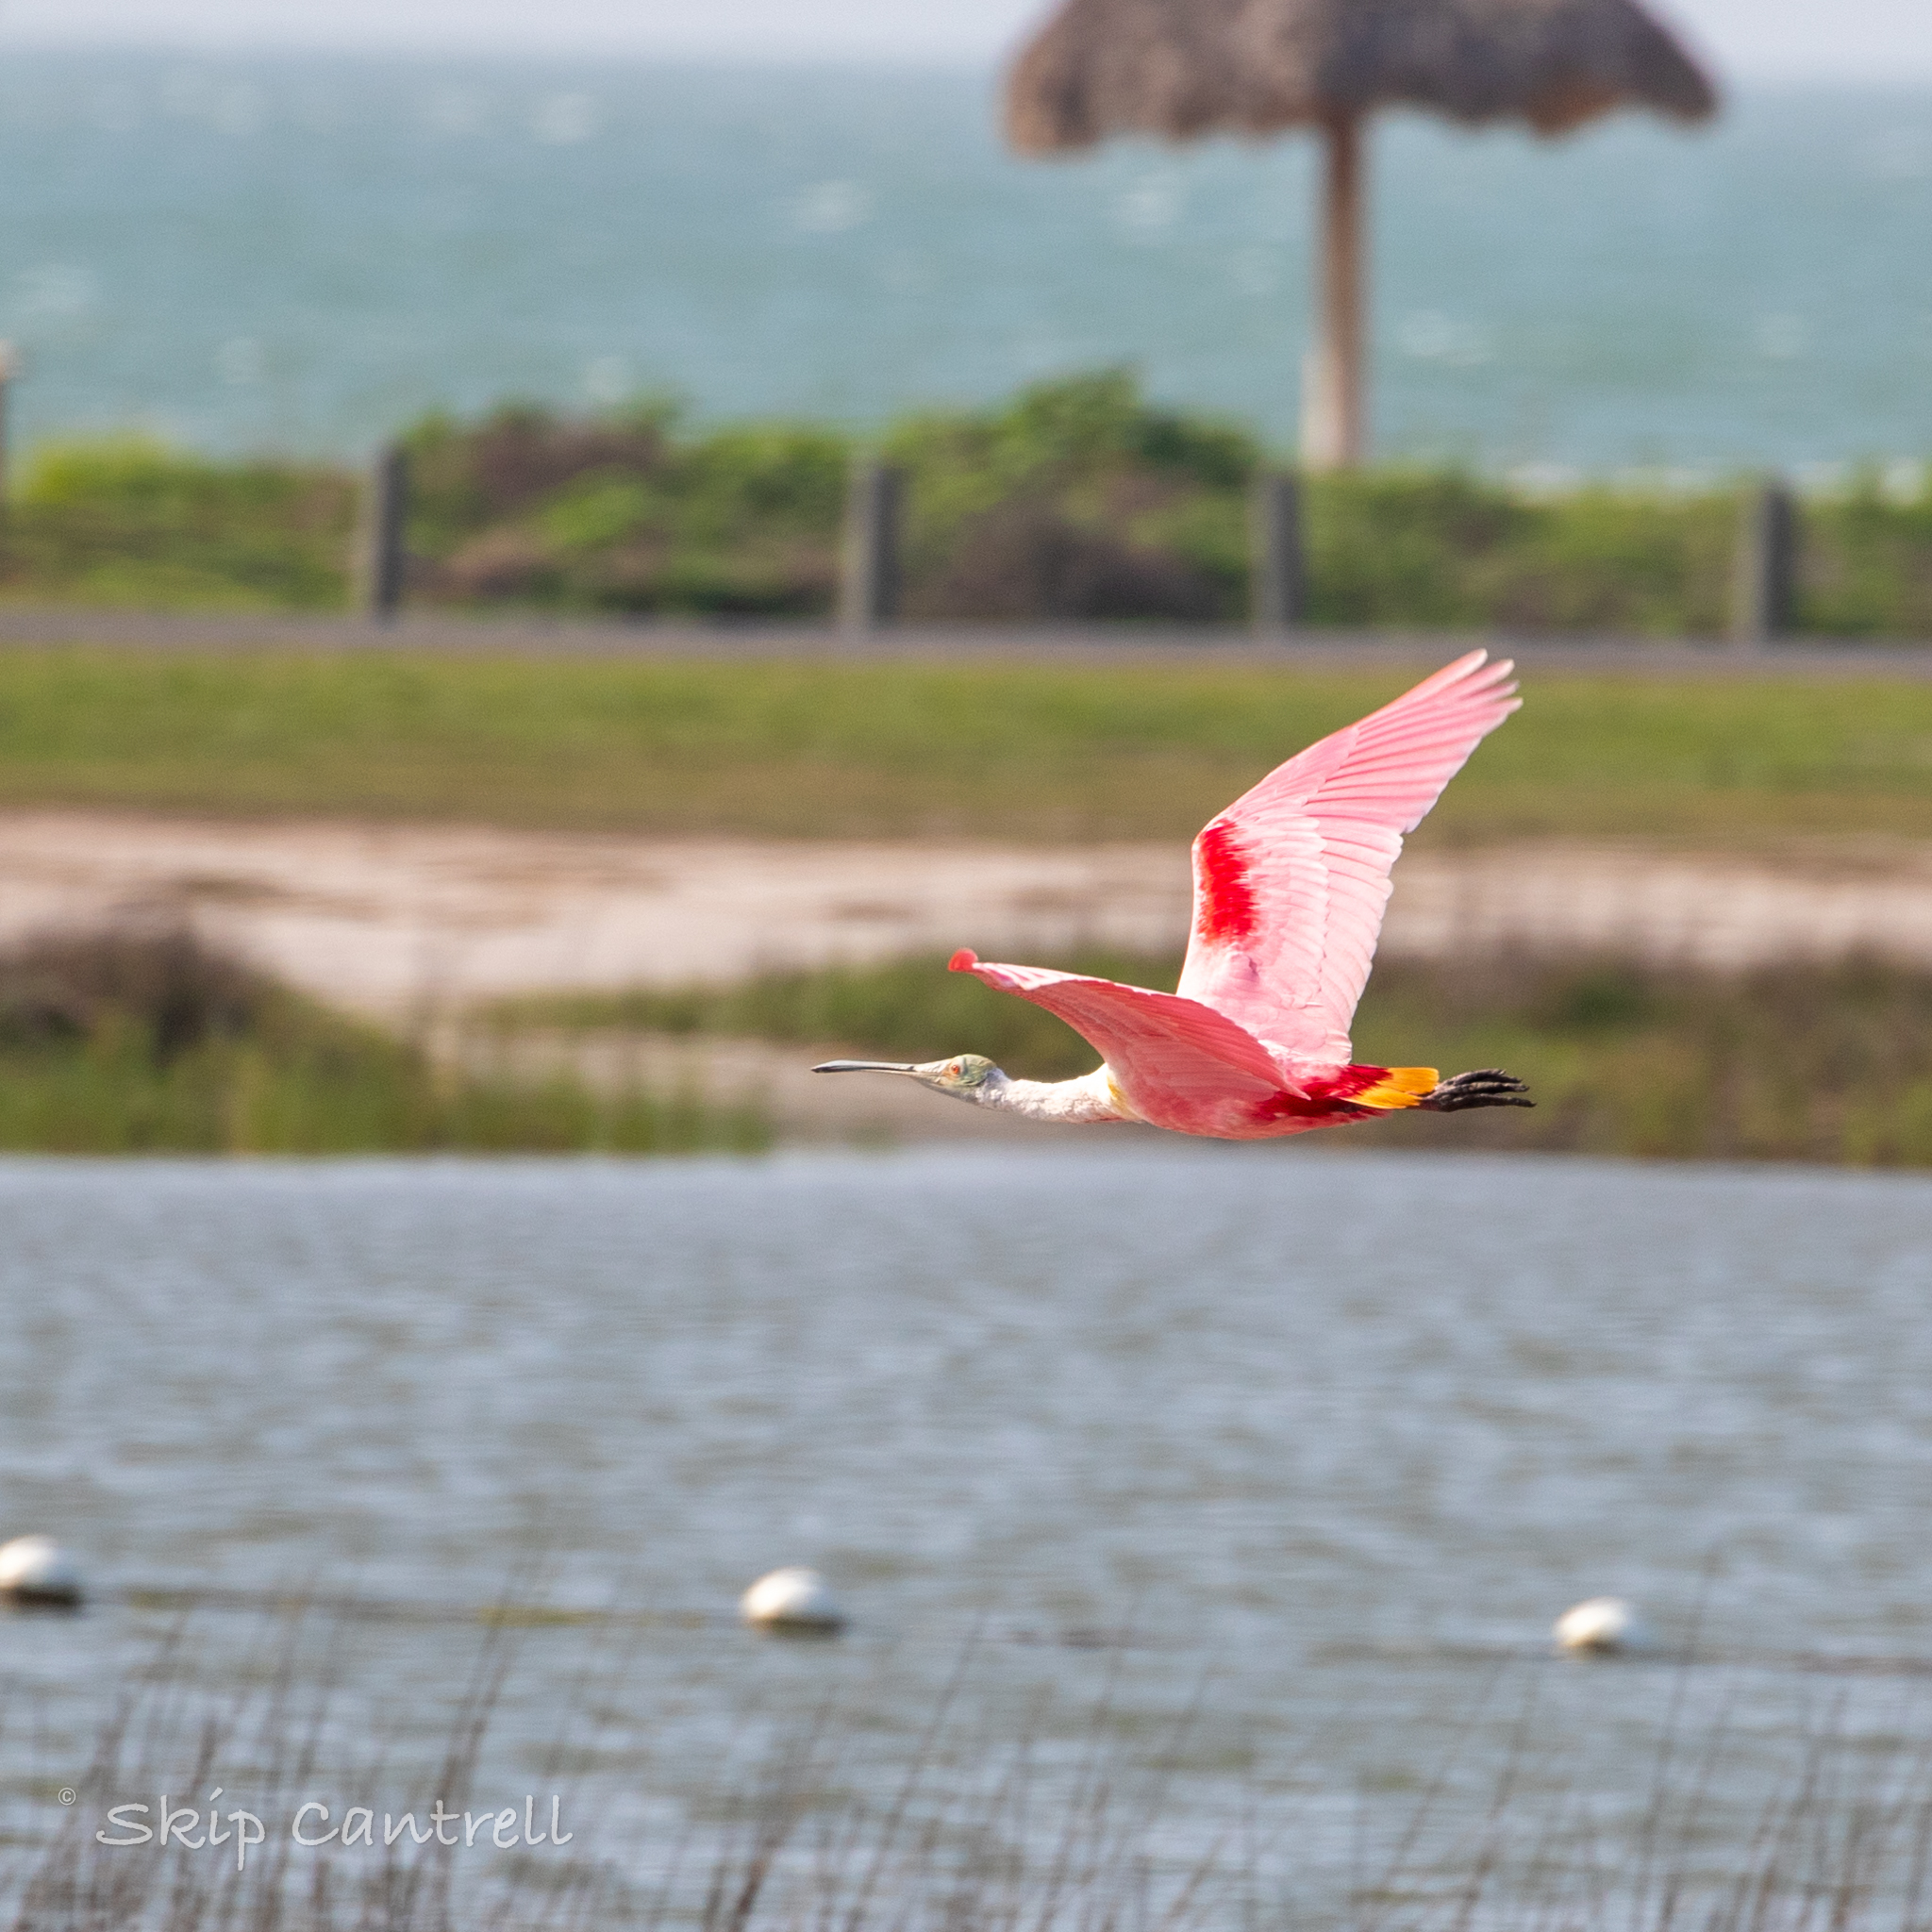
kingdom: Animalia
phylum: Chordata
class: Aves
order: Pelecaniformes
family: Threskiornithidae
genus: Platalea
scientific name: Platalea ajaja
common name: Roseate spoonbill
